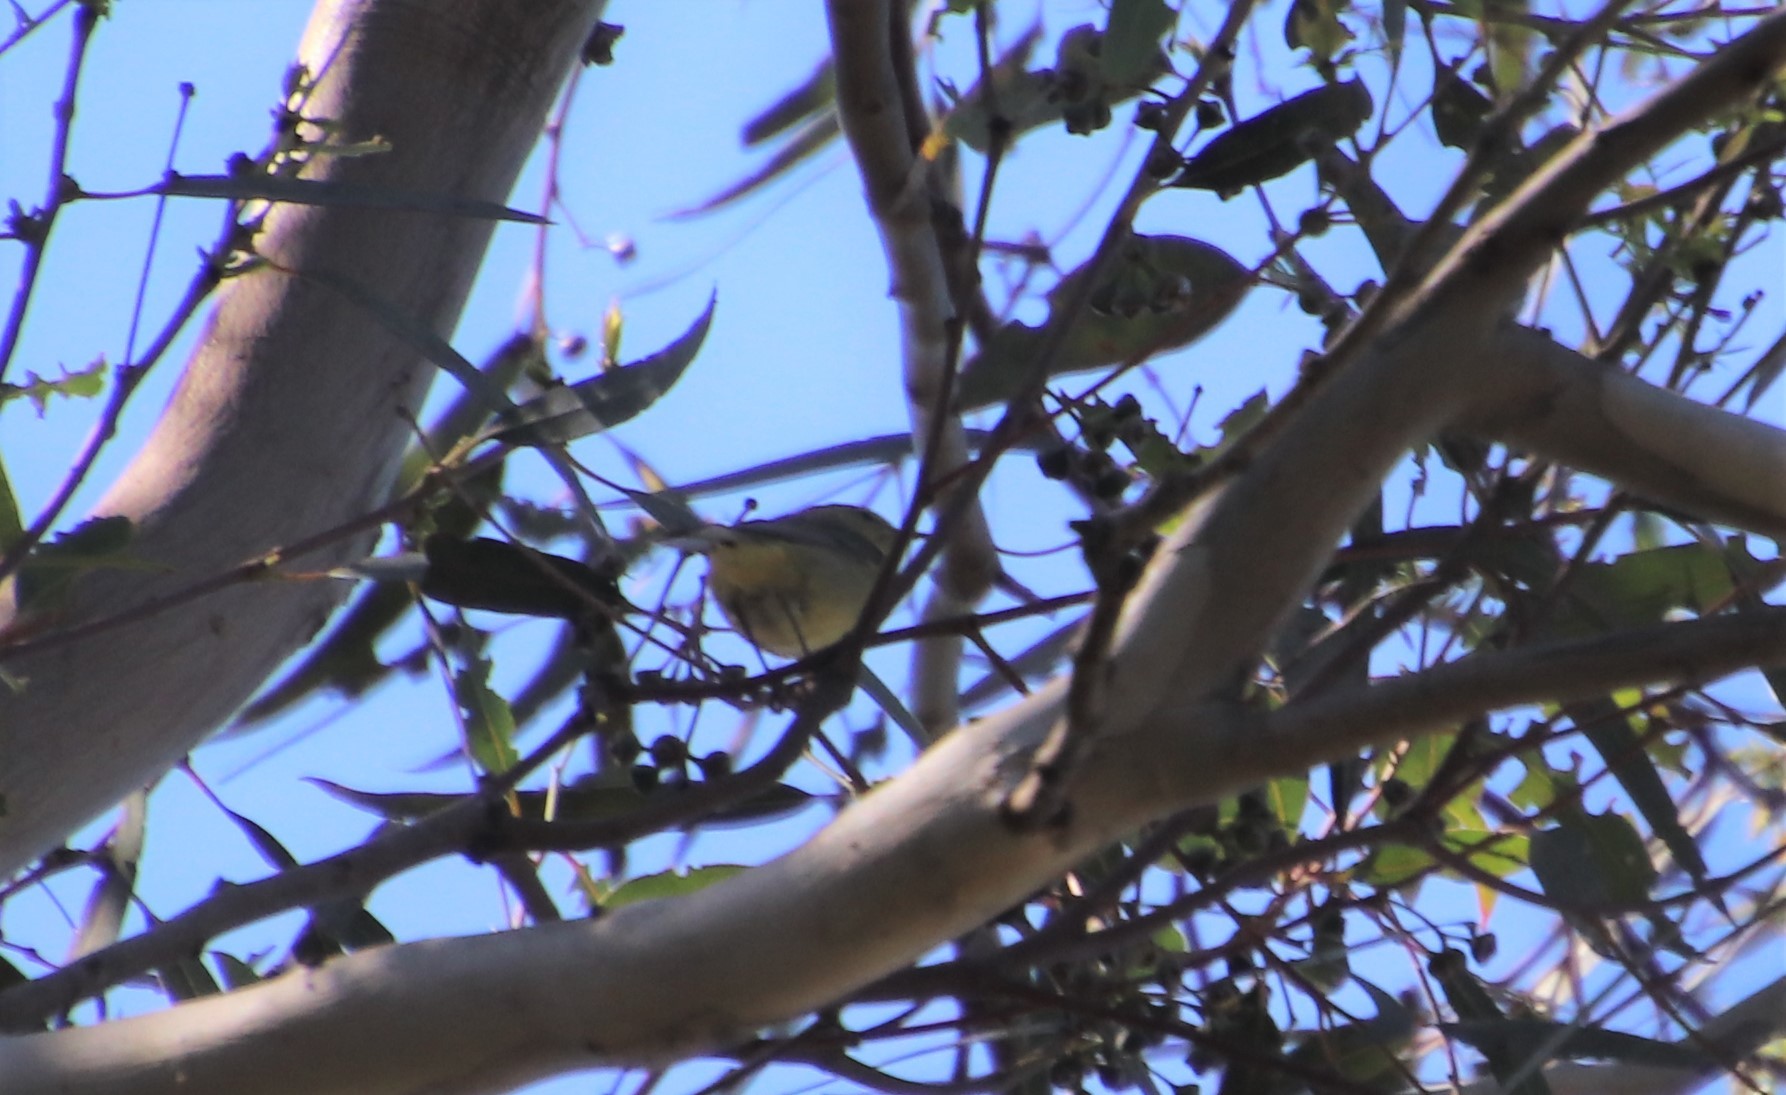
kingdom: Animalia
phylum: Chordata
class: Aves
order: Passeriformes
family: Parulidae
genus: Leiothlypis
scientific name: Leiothlypis celata
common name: Orange-crowned warbler
